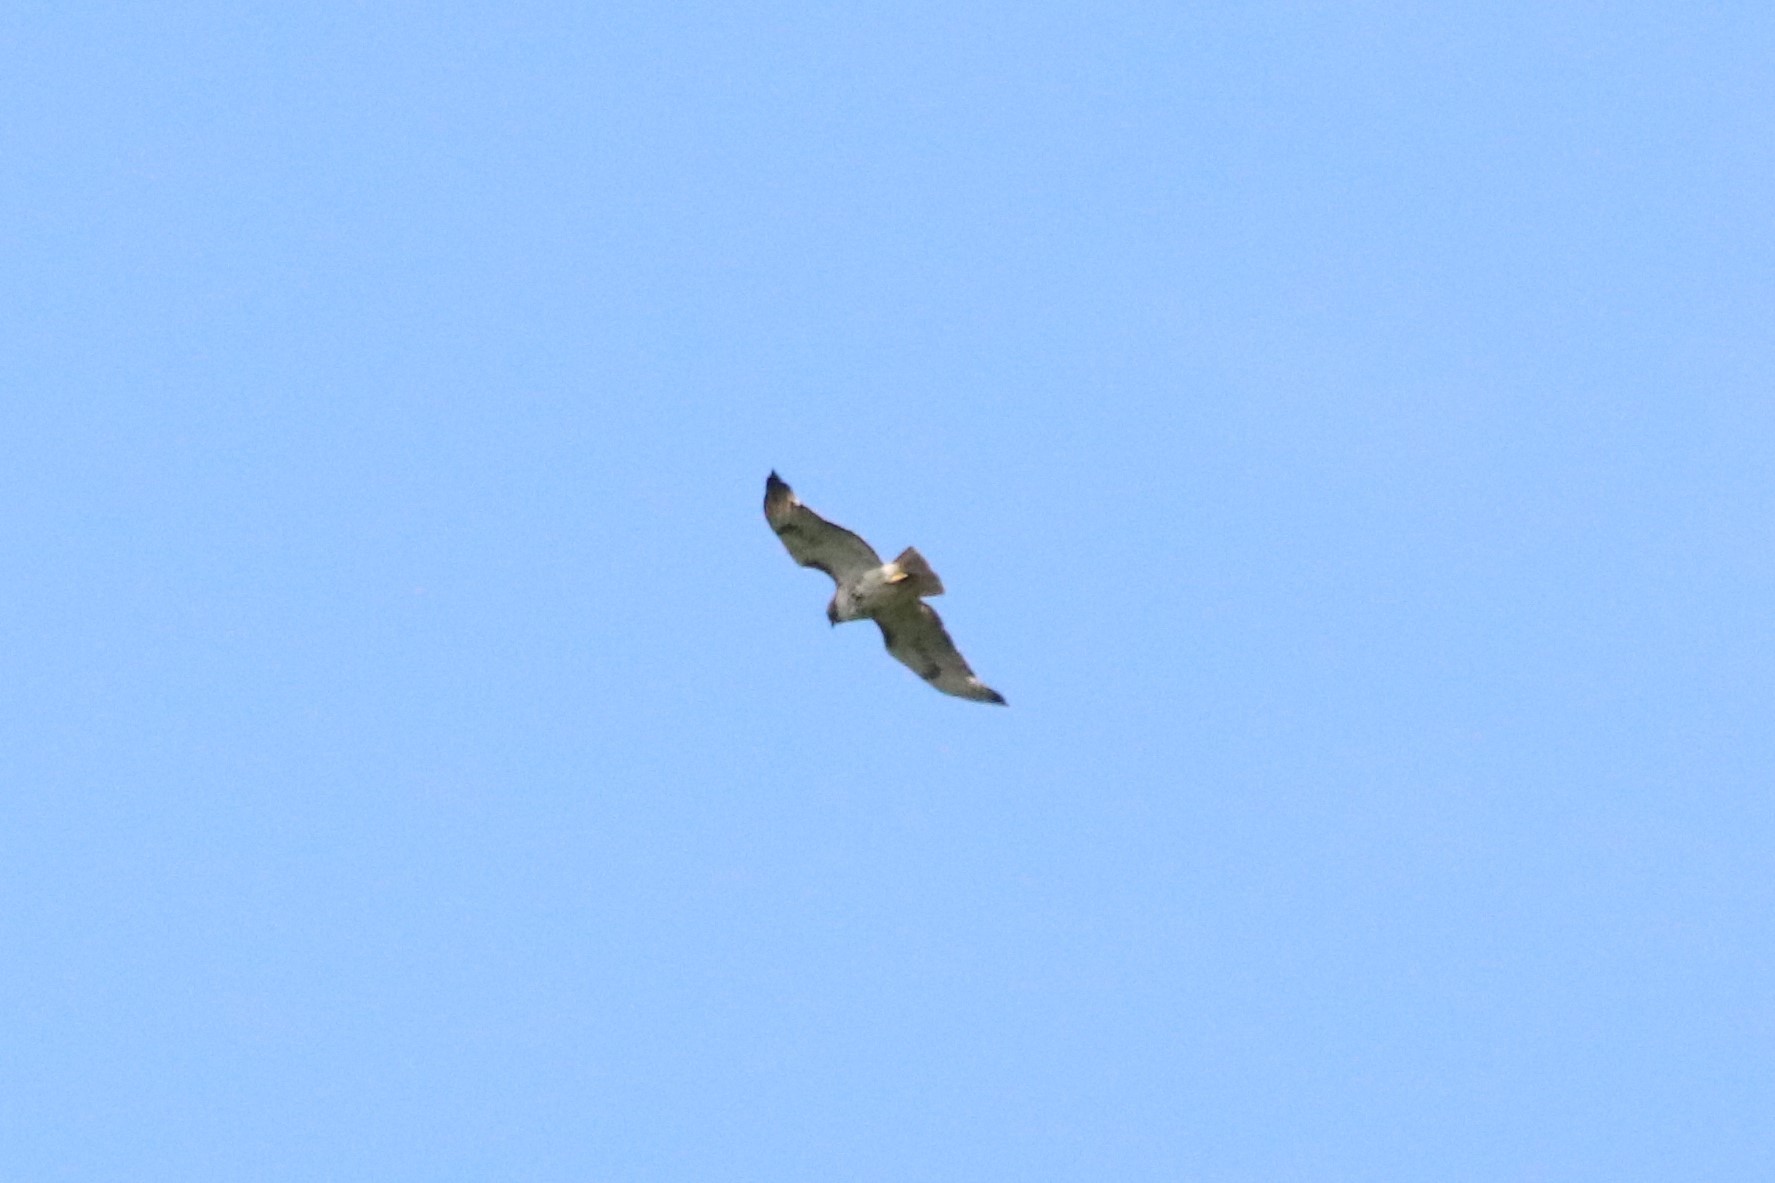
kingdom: Animalia
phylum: Chordata
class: Aves
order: Accipitriformes
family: Accipitridae
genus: Buteo
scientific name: Buteo jamaicensis
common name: Red-tailed hawk
